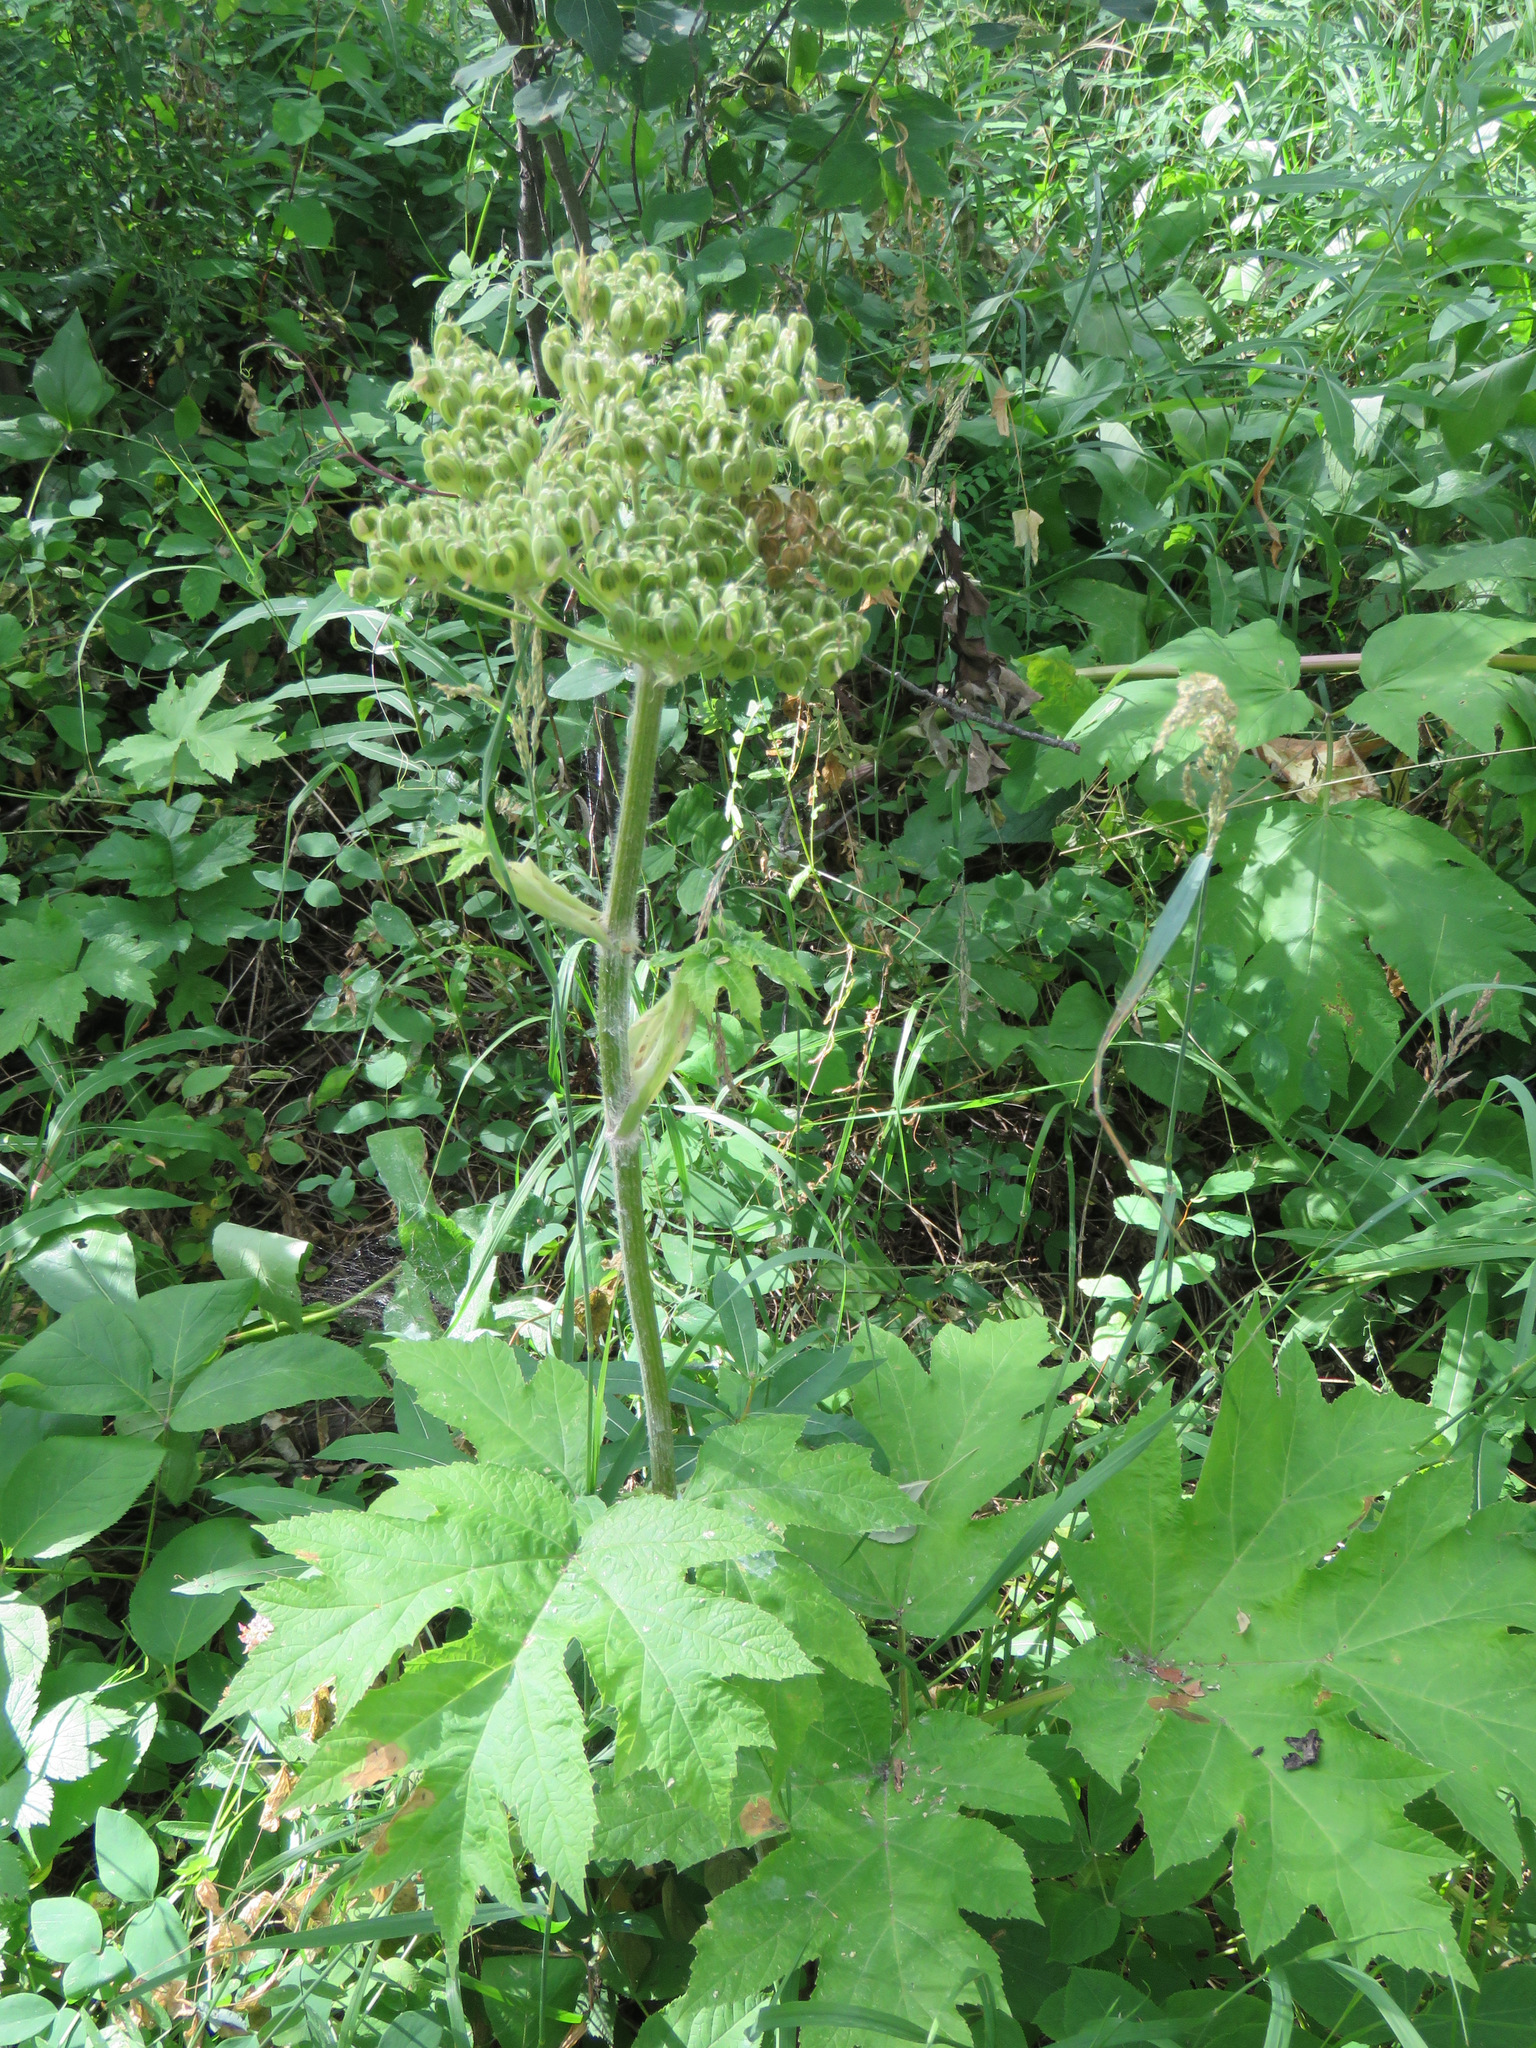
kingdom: Plantae
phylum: Tracheophyta
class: Magnoliopsida
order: Apiales
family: Apiaceae
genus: Heracleum
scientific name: Heracleum maximum
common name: American cow parsnip
